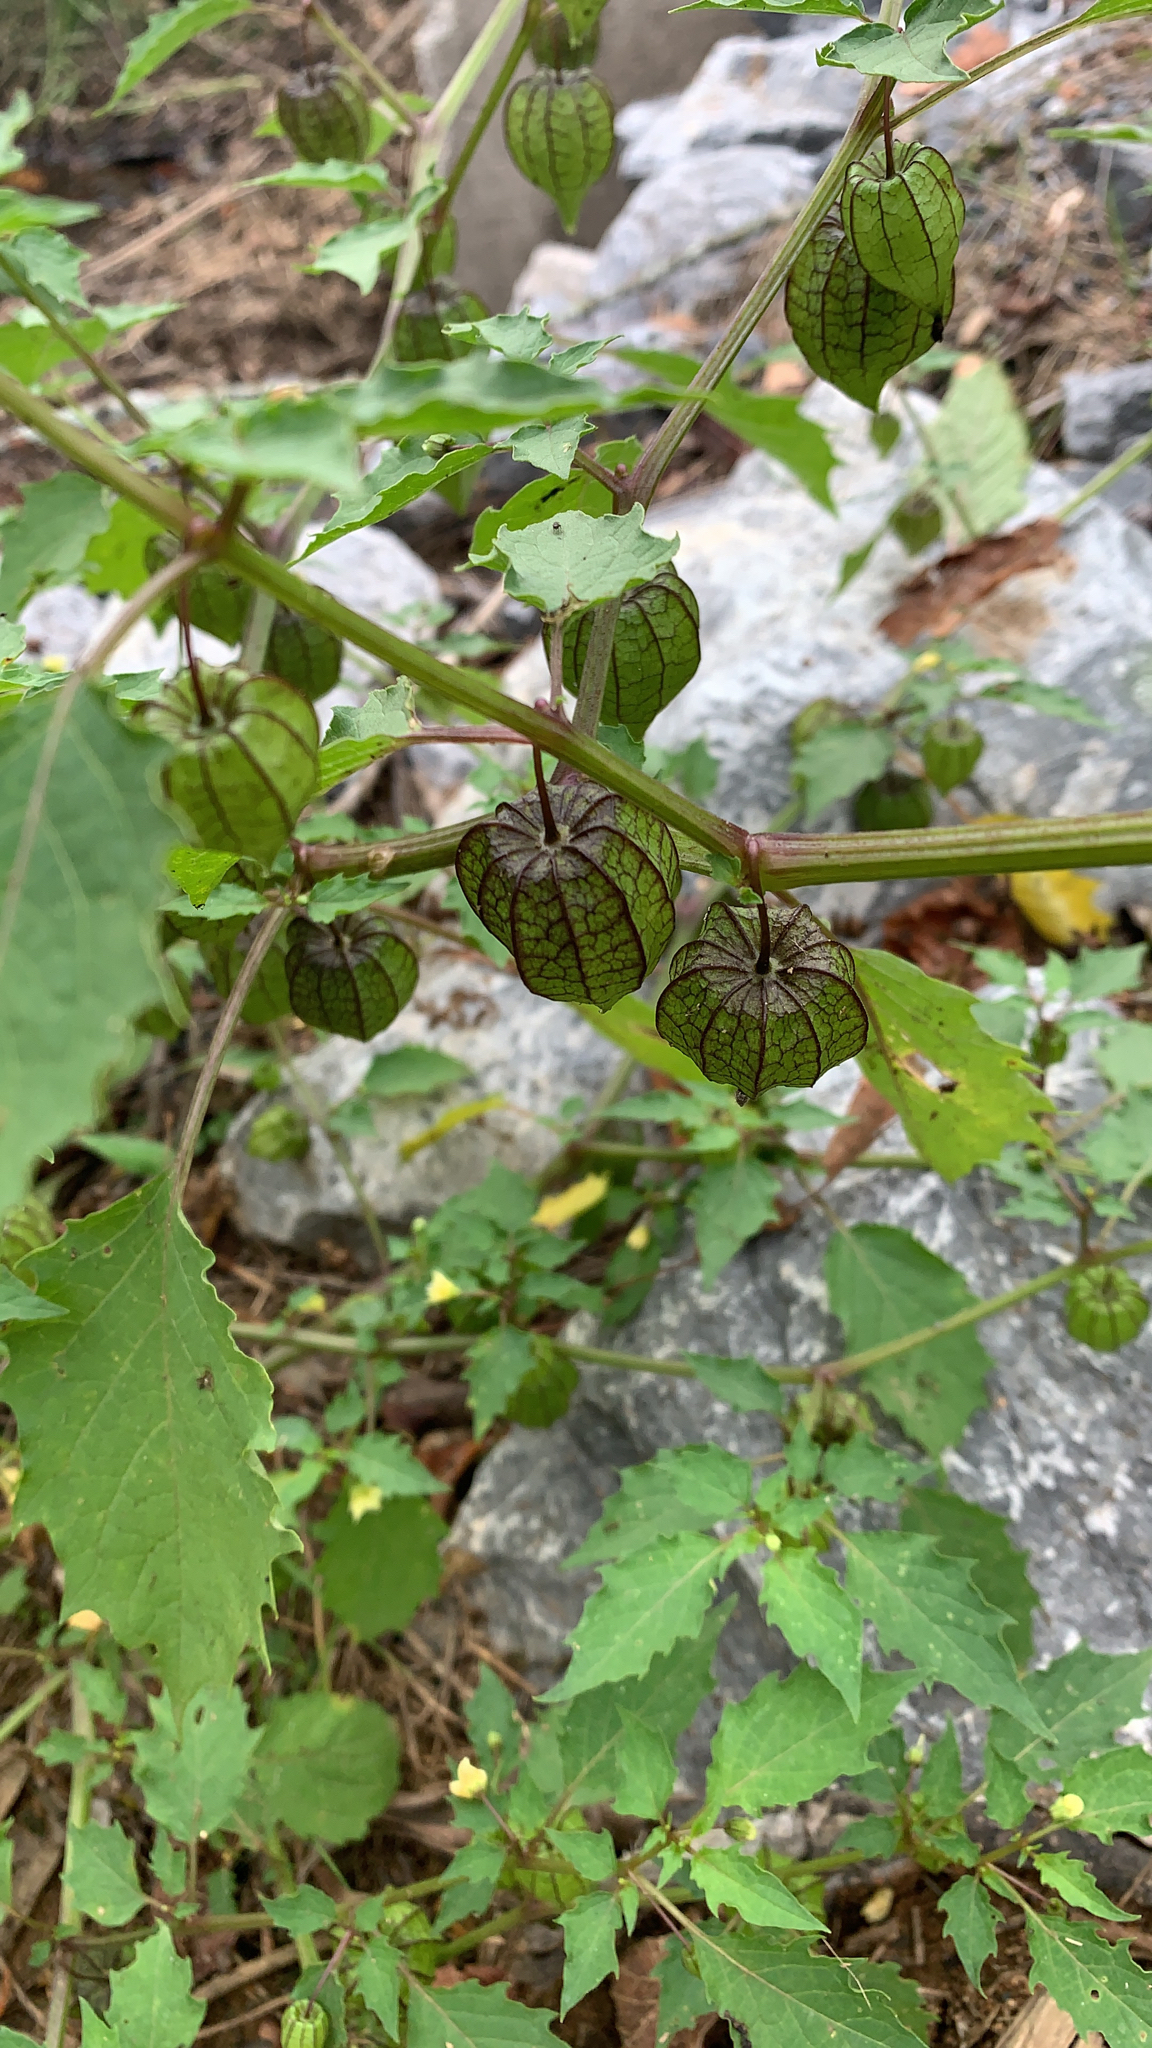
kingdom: Plantae
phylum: Tracheophyta
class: Magnoliopsida
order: Solanales
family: Solanaceae
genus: Physalis
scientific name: Physalis angulata
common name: Angular winter-cherry
